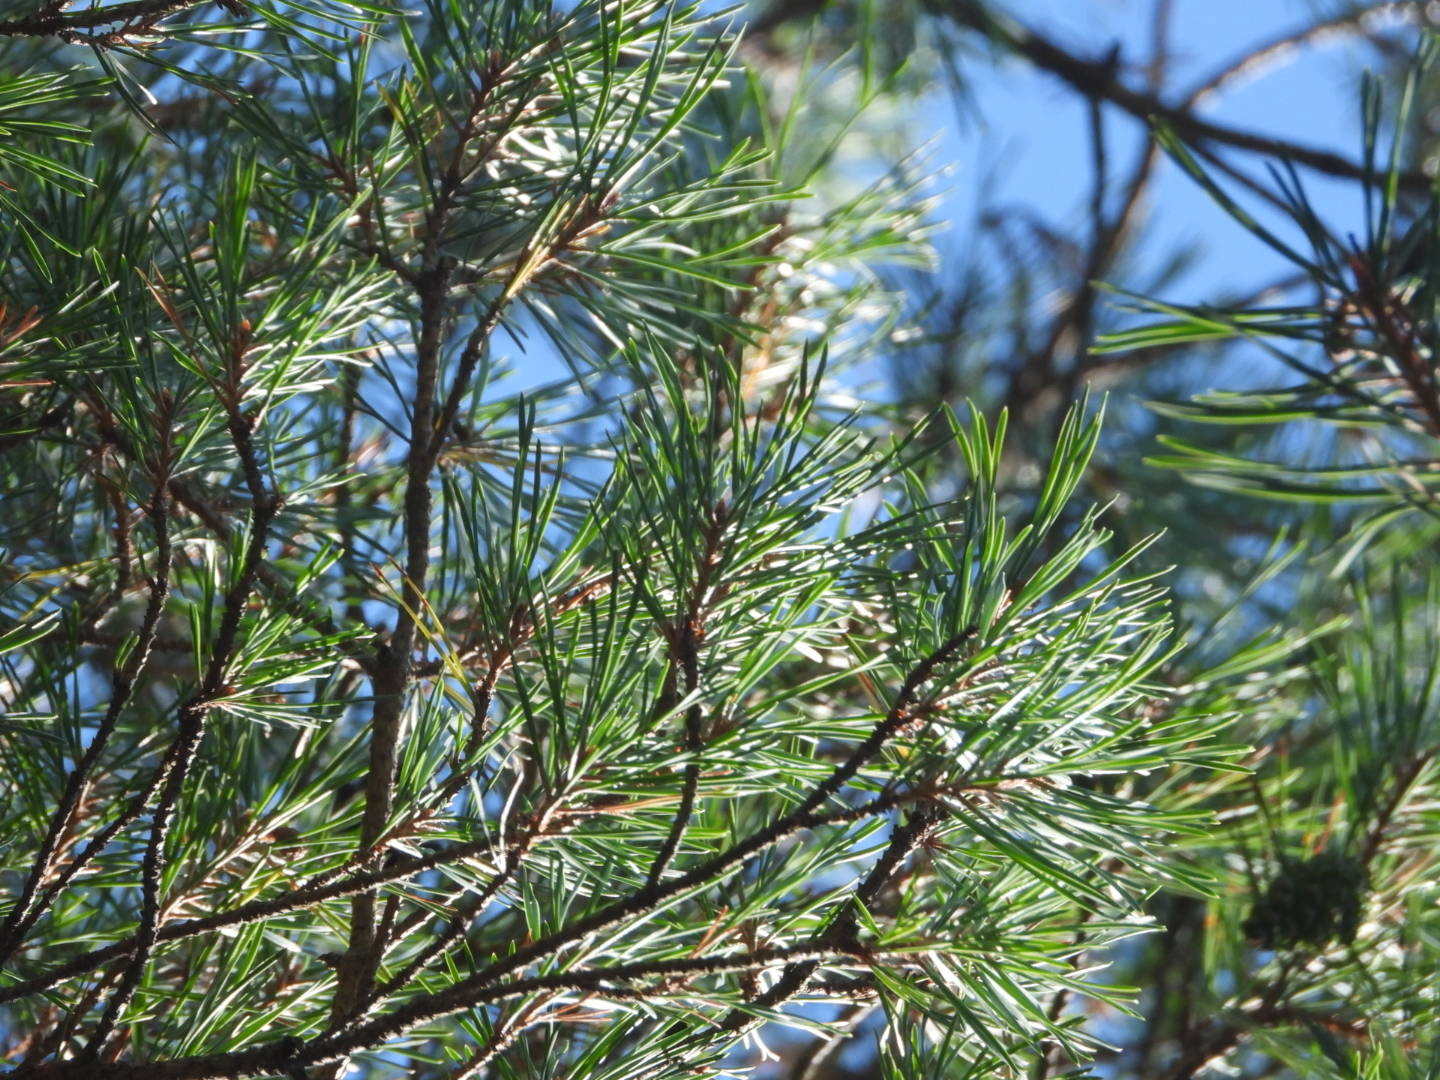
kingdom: Plantae
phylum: Tracheophyta
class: Pinopsida
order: Pinales
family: Pinaceae
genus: Pinus
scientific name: Pinus sylvestris
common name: Scots pine
